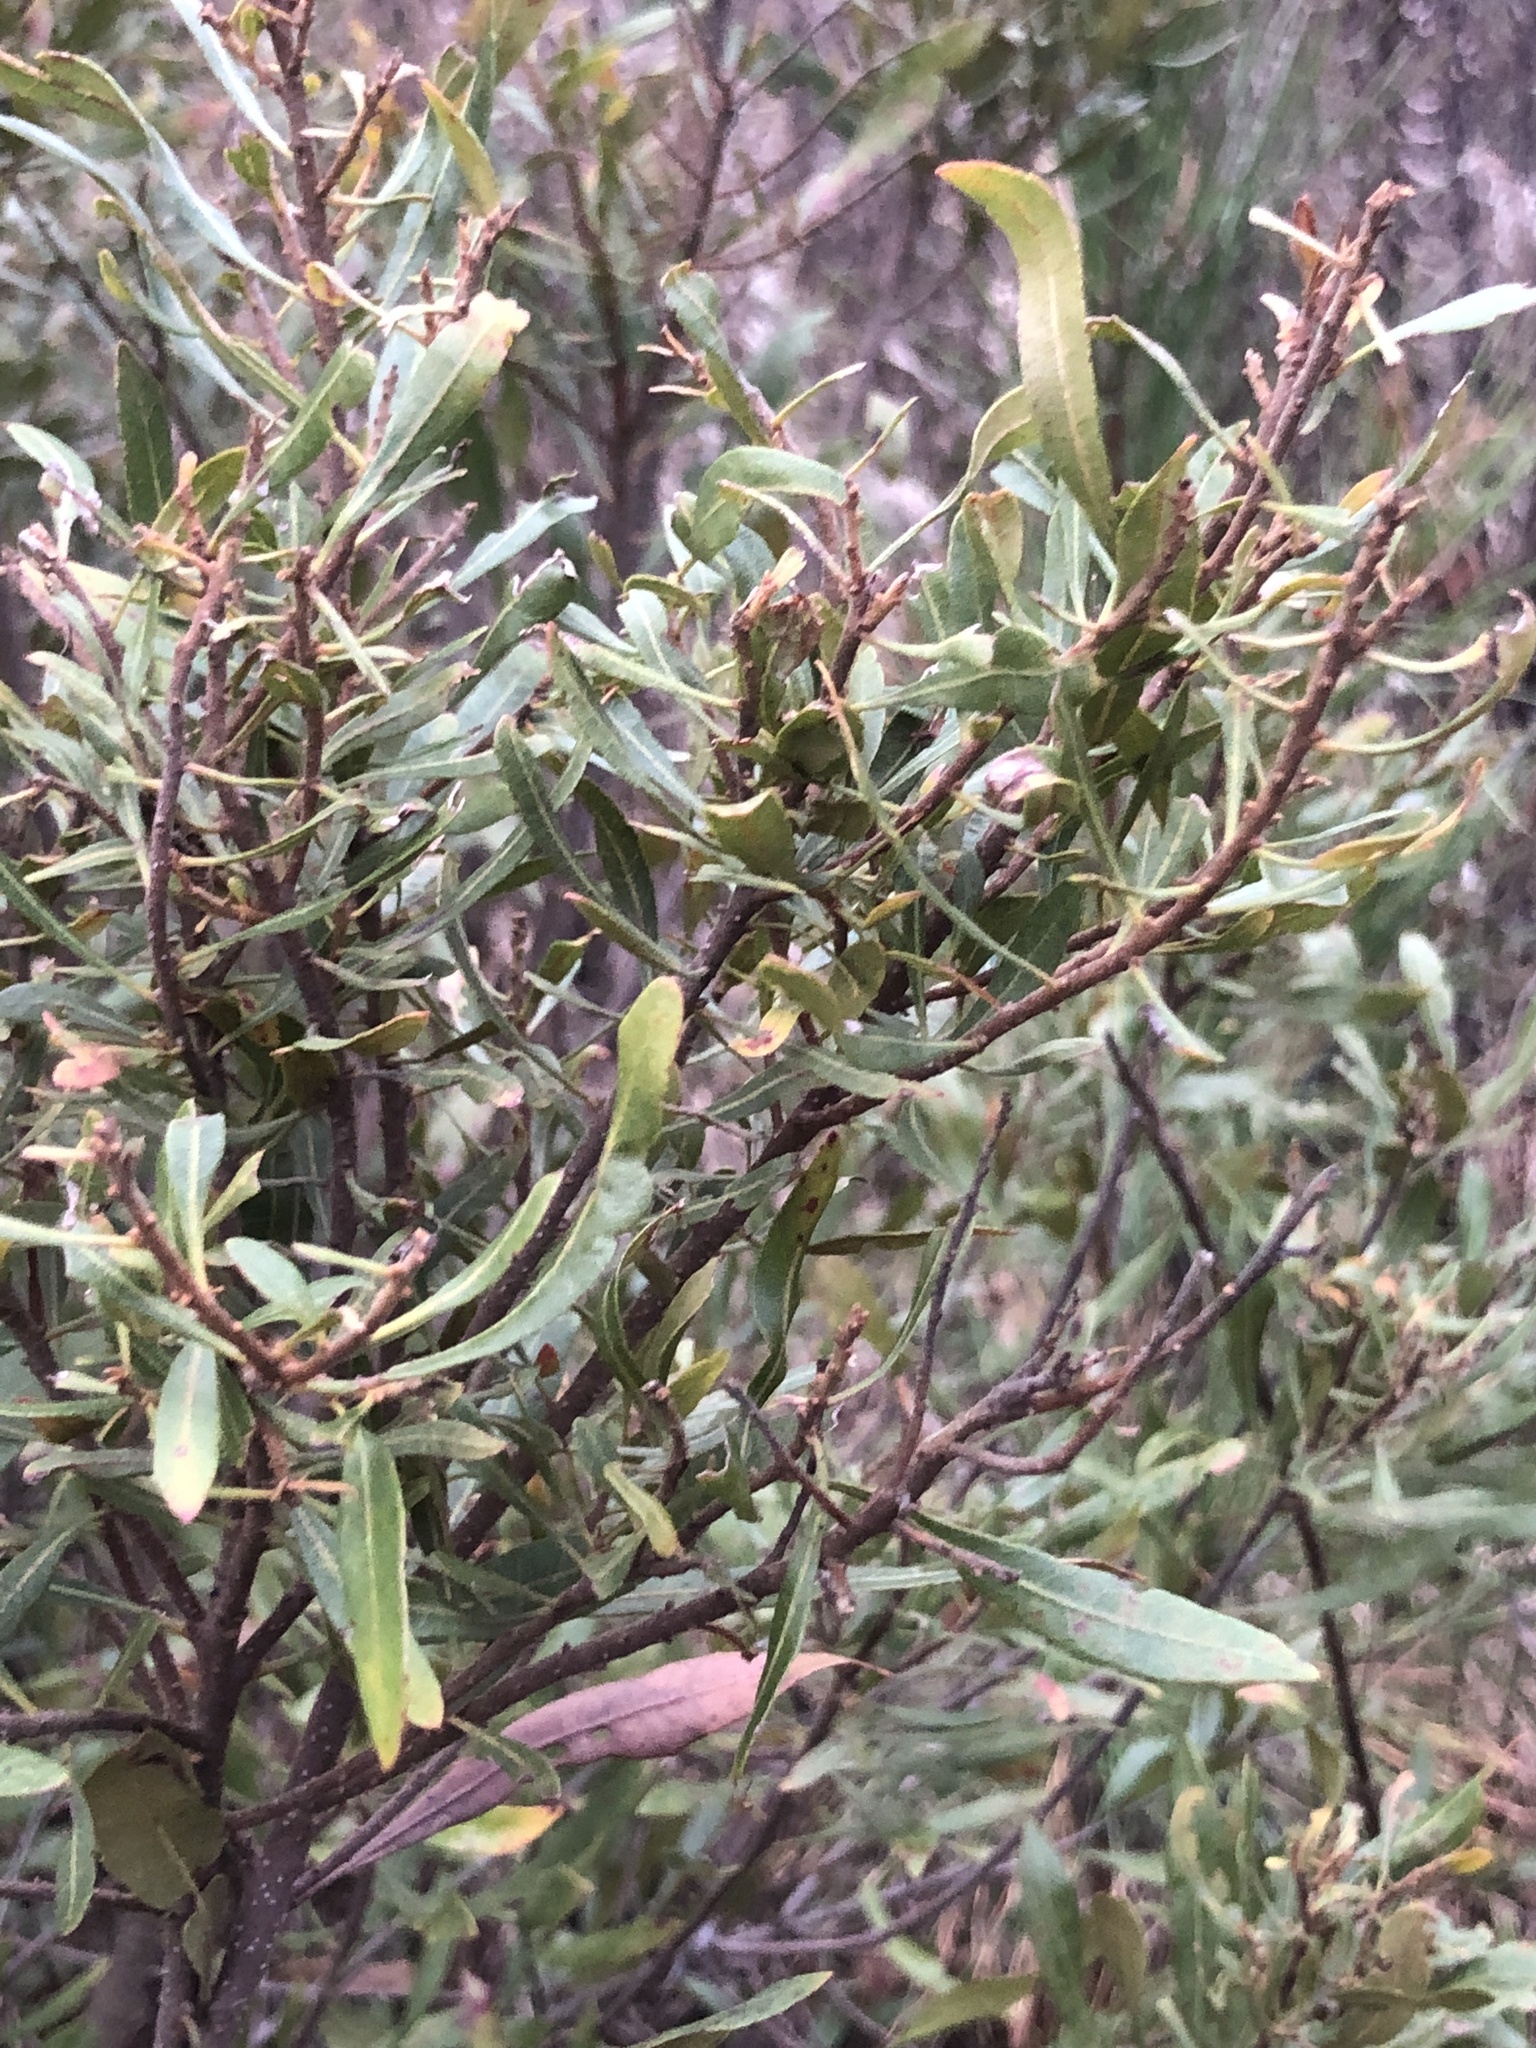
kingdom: Plantae
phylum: Tracheophyta
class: Magnoliopsida
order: Fagales
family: Myricaceae
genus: Morella
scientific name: Morella cerifera
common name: Wax myrtle
